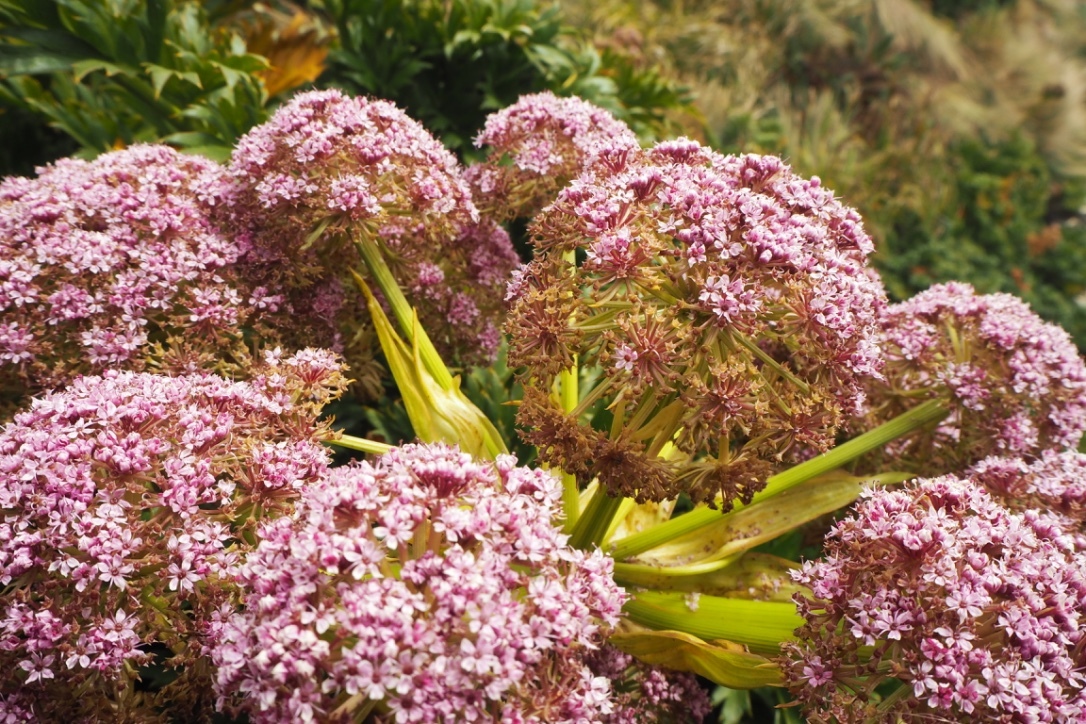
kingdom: Plantae
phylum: Tracheophyta
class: Magnoliopsida
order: Apiales
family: Apiaceae
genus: Anisotome
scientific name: Anisotome latifolia
